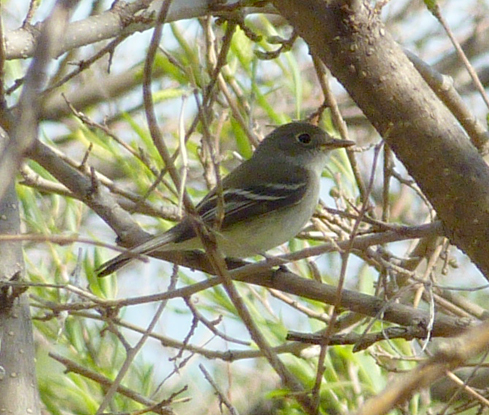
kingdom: Animalia
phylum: Chordata
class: Aves
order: Passeriformes
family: Tyrannidae
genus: Empidonax
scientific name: Empidonax
